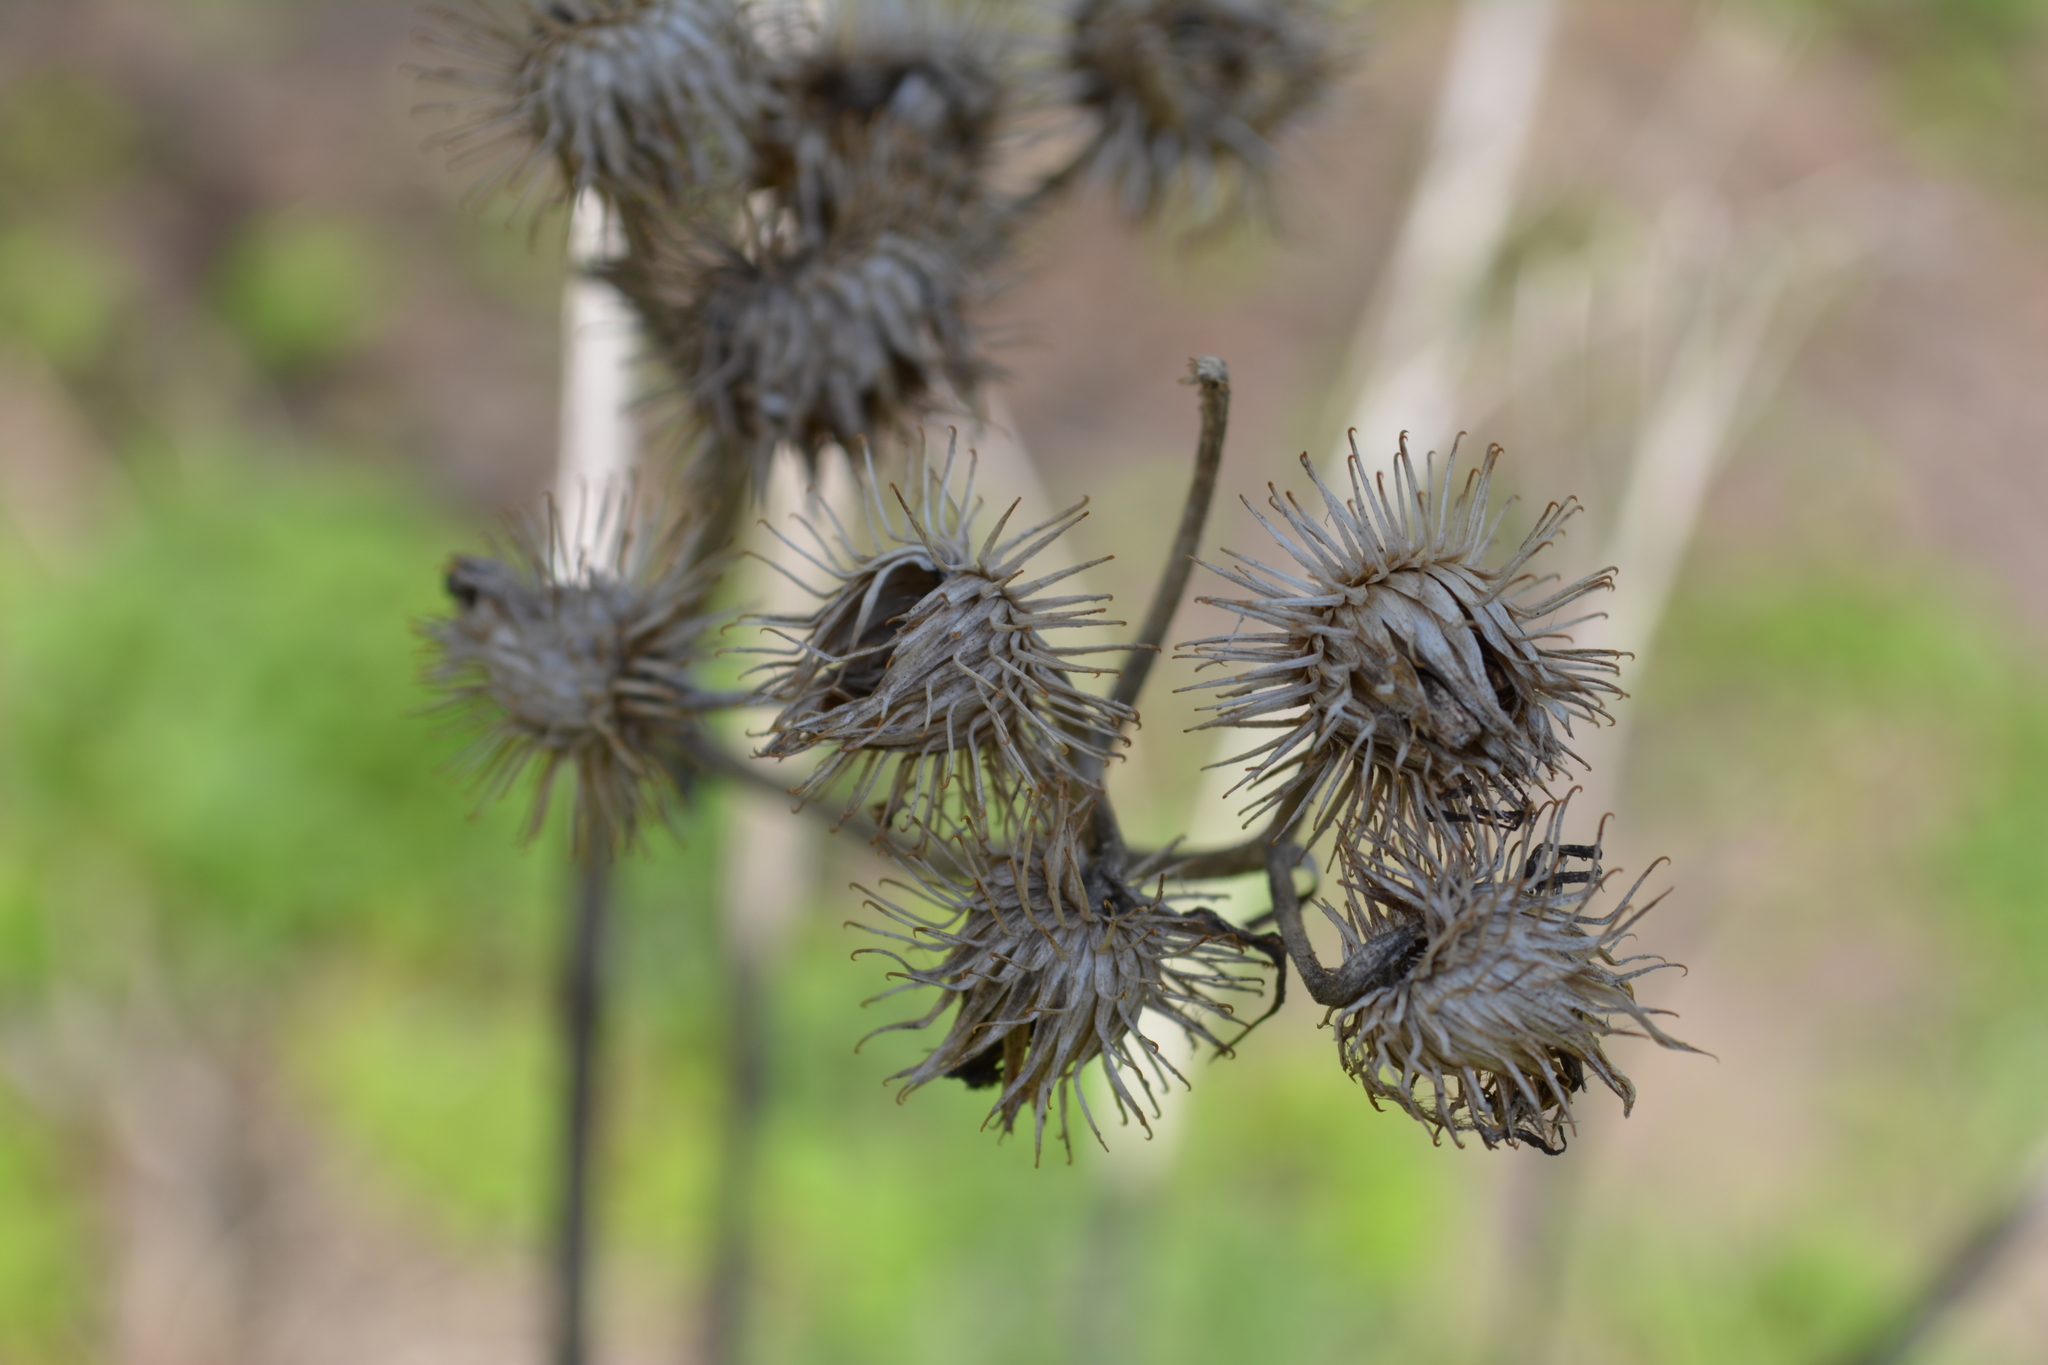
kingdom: Plantae
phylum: Tracheophyta
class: Magnoliopsida
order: Asterales
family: Asteraceae
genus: Arctium
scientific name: Arctium tomentosum
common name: Woolly burdock
